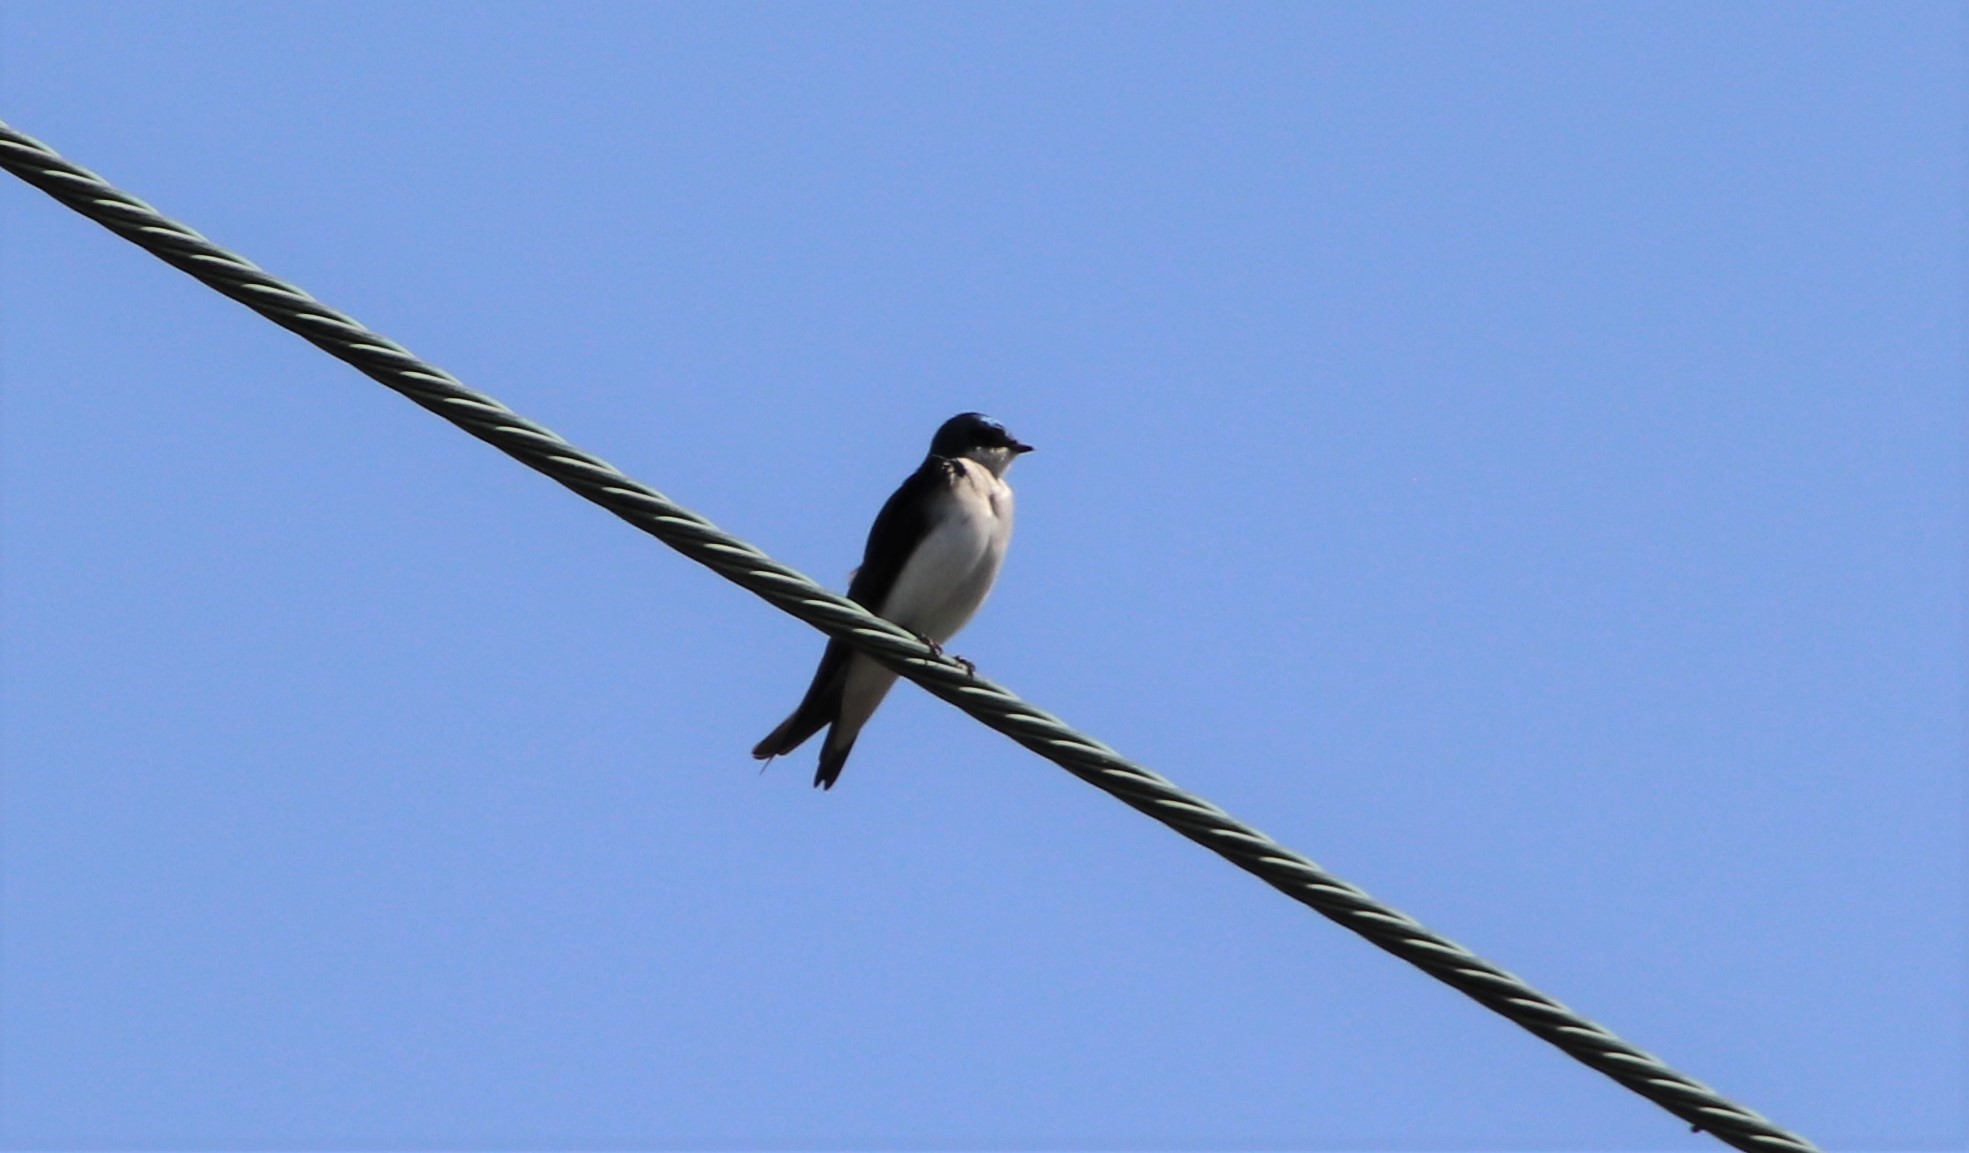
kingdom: Animalia
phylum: Chordata
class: Aves
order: Passeriformes
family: Hirundinidae
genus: Tachycineta
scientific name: Tachycineta bicolor
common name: Tree swallow
